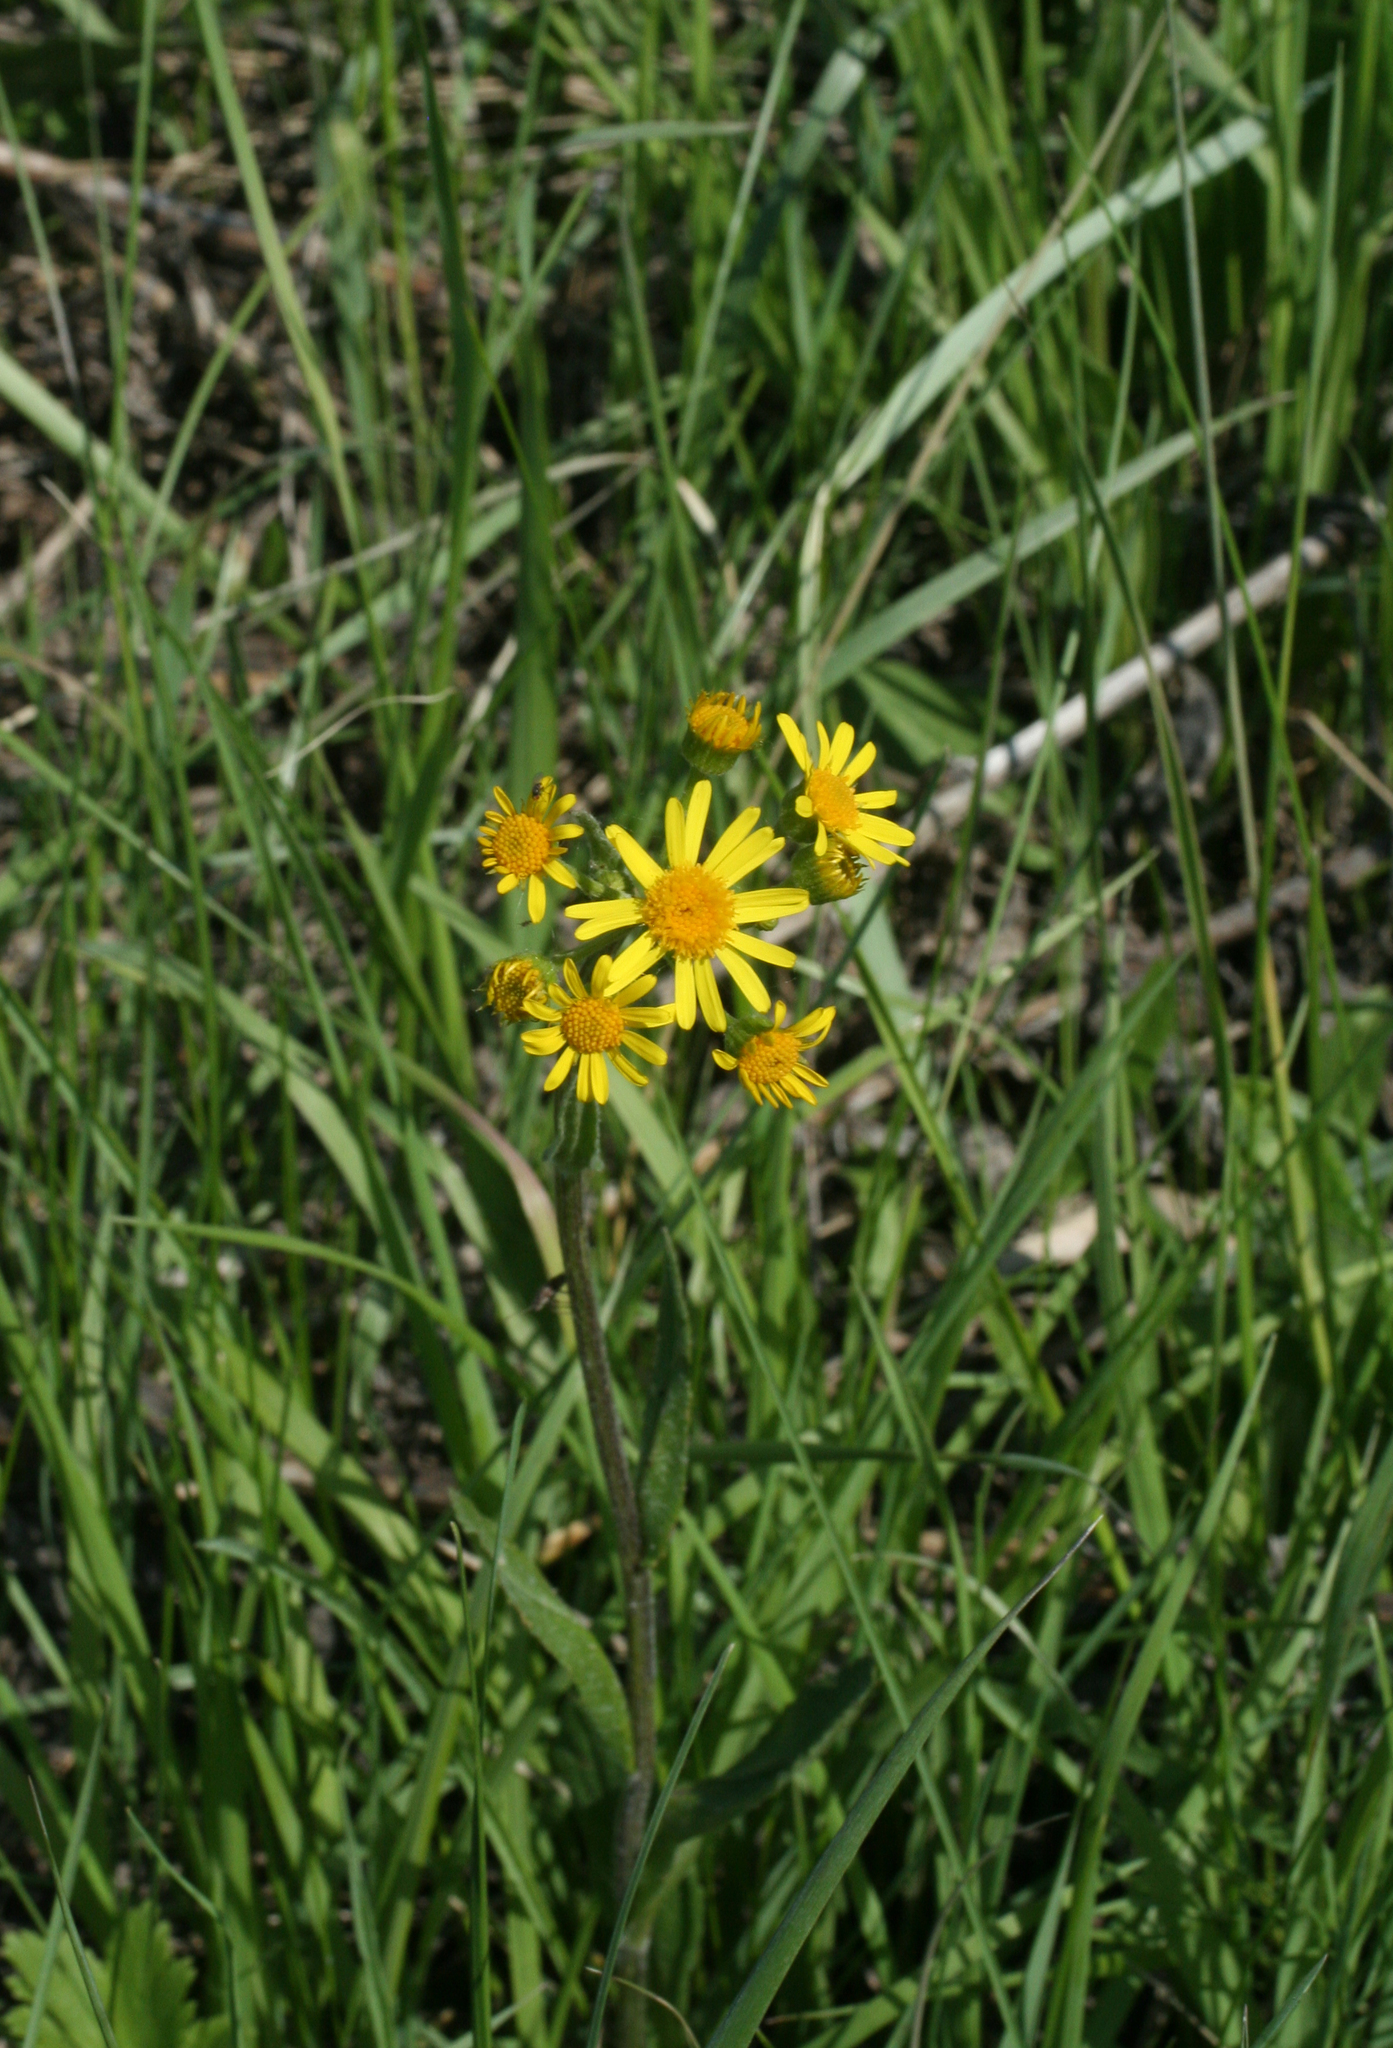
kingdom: Plantae
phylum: Tracheophyta
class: Magnoliopsida
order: Asterales
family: Asteraceae
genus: Tephroseris
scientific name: Tephroseris integrifolia
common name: Field fleawort
